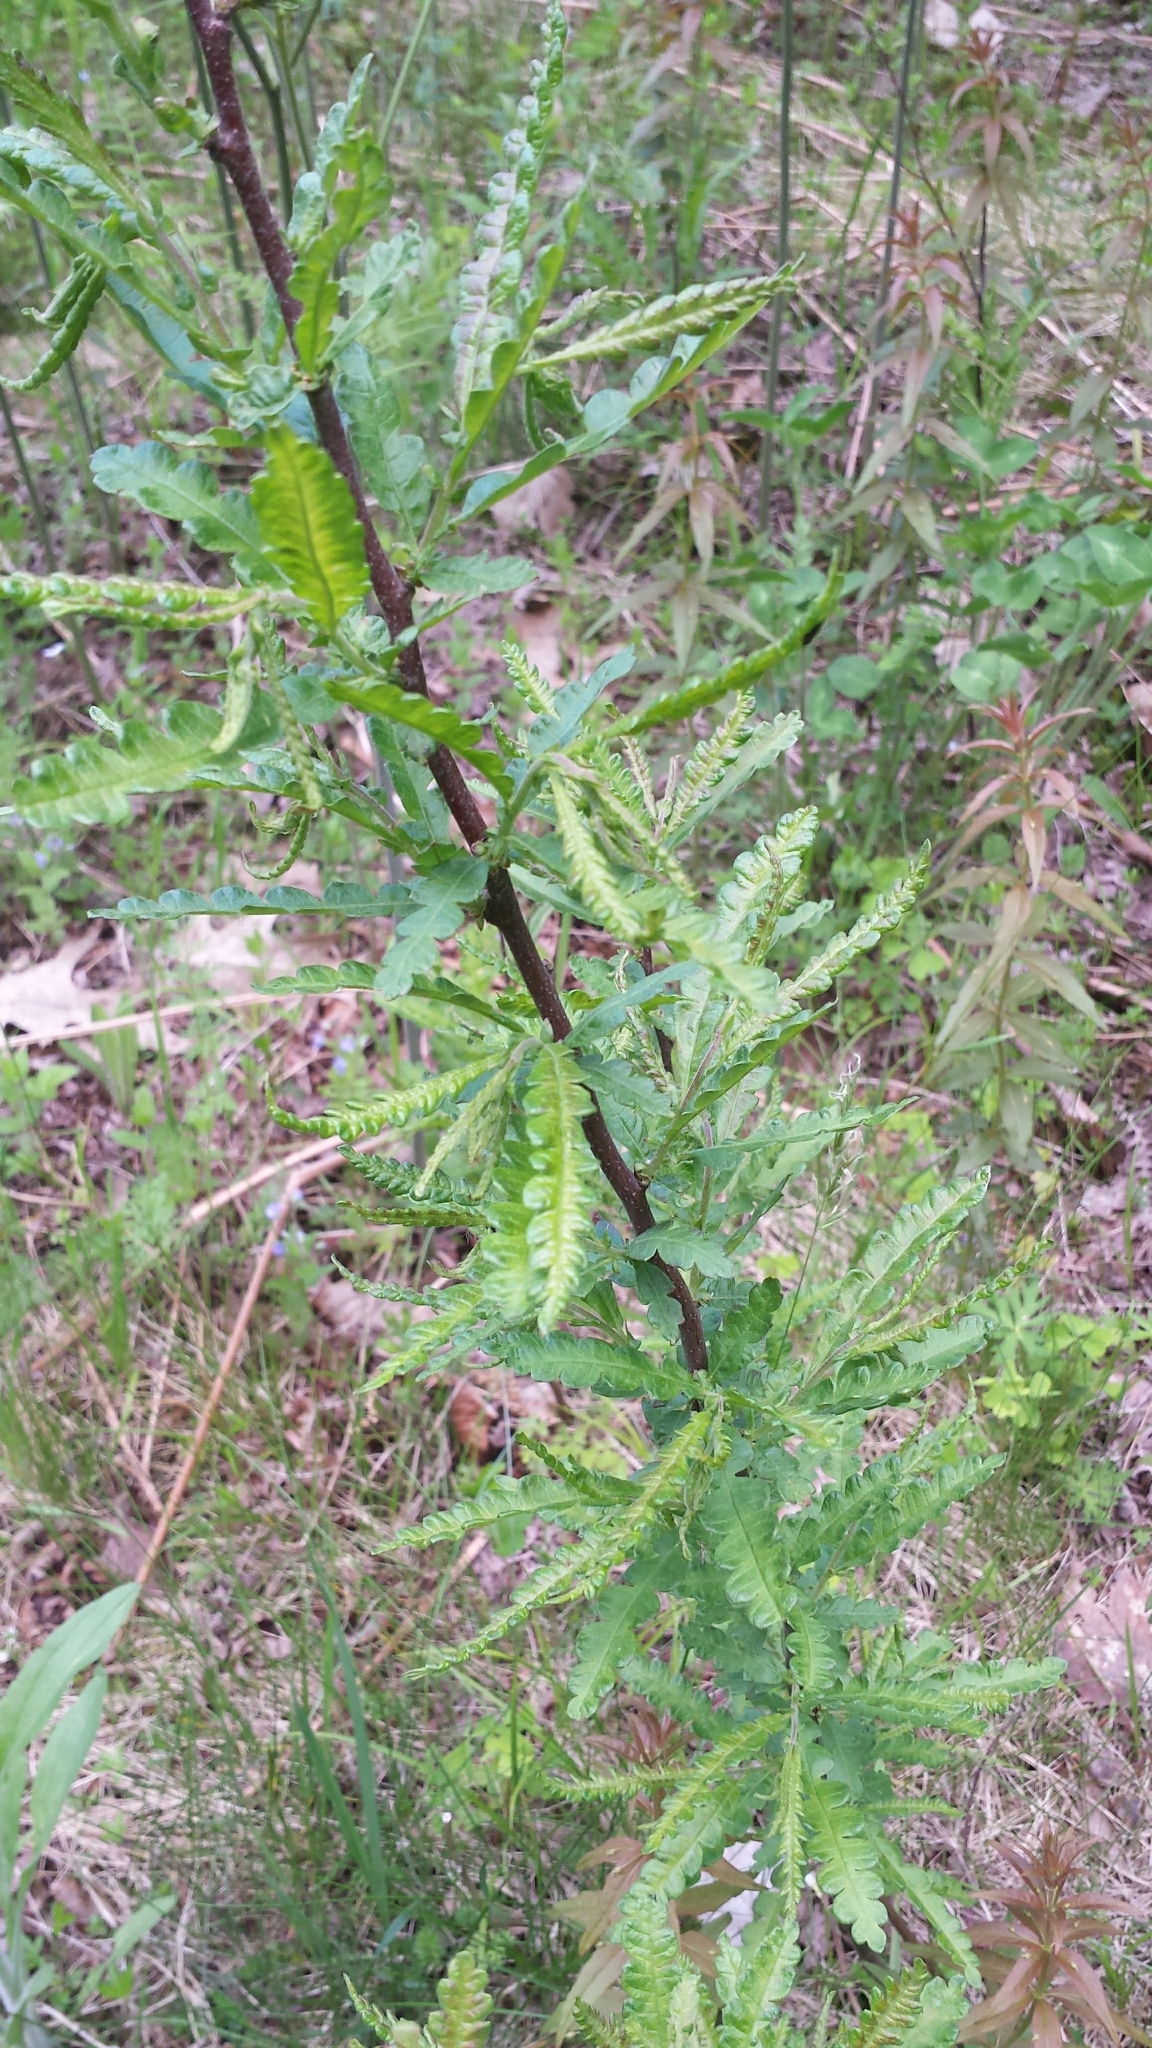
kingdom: Plantae
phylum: Tracheophyta
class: Magnoliopsida
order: Fagales
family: Myricaceae
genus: Comptonia
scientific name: Comptonia peregrina
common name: Sweet-fern
